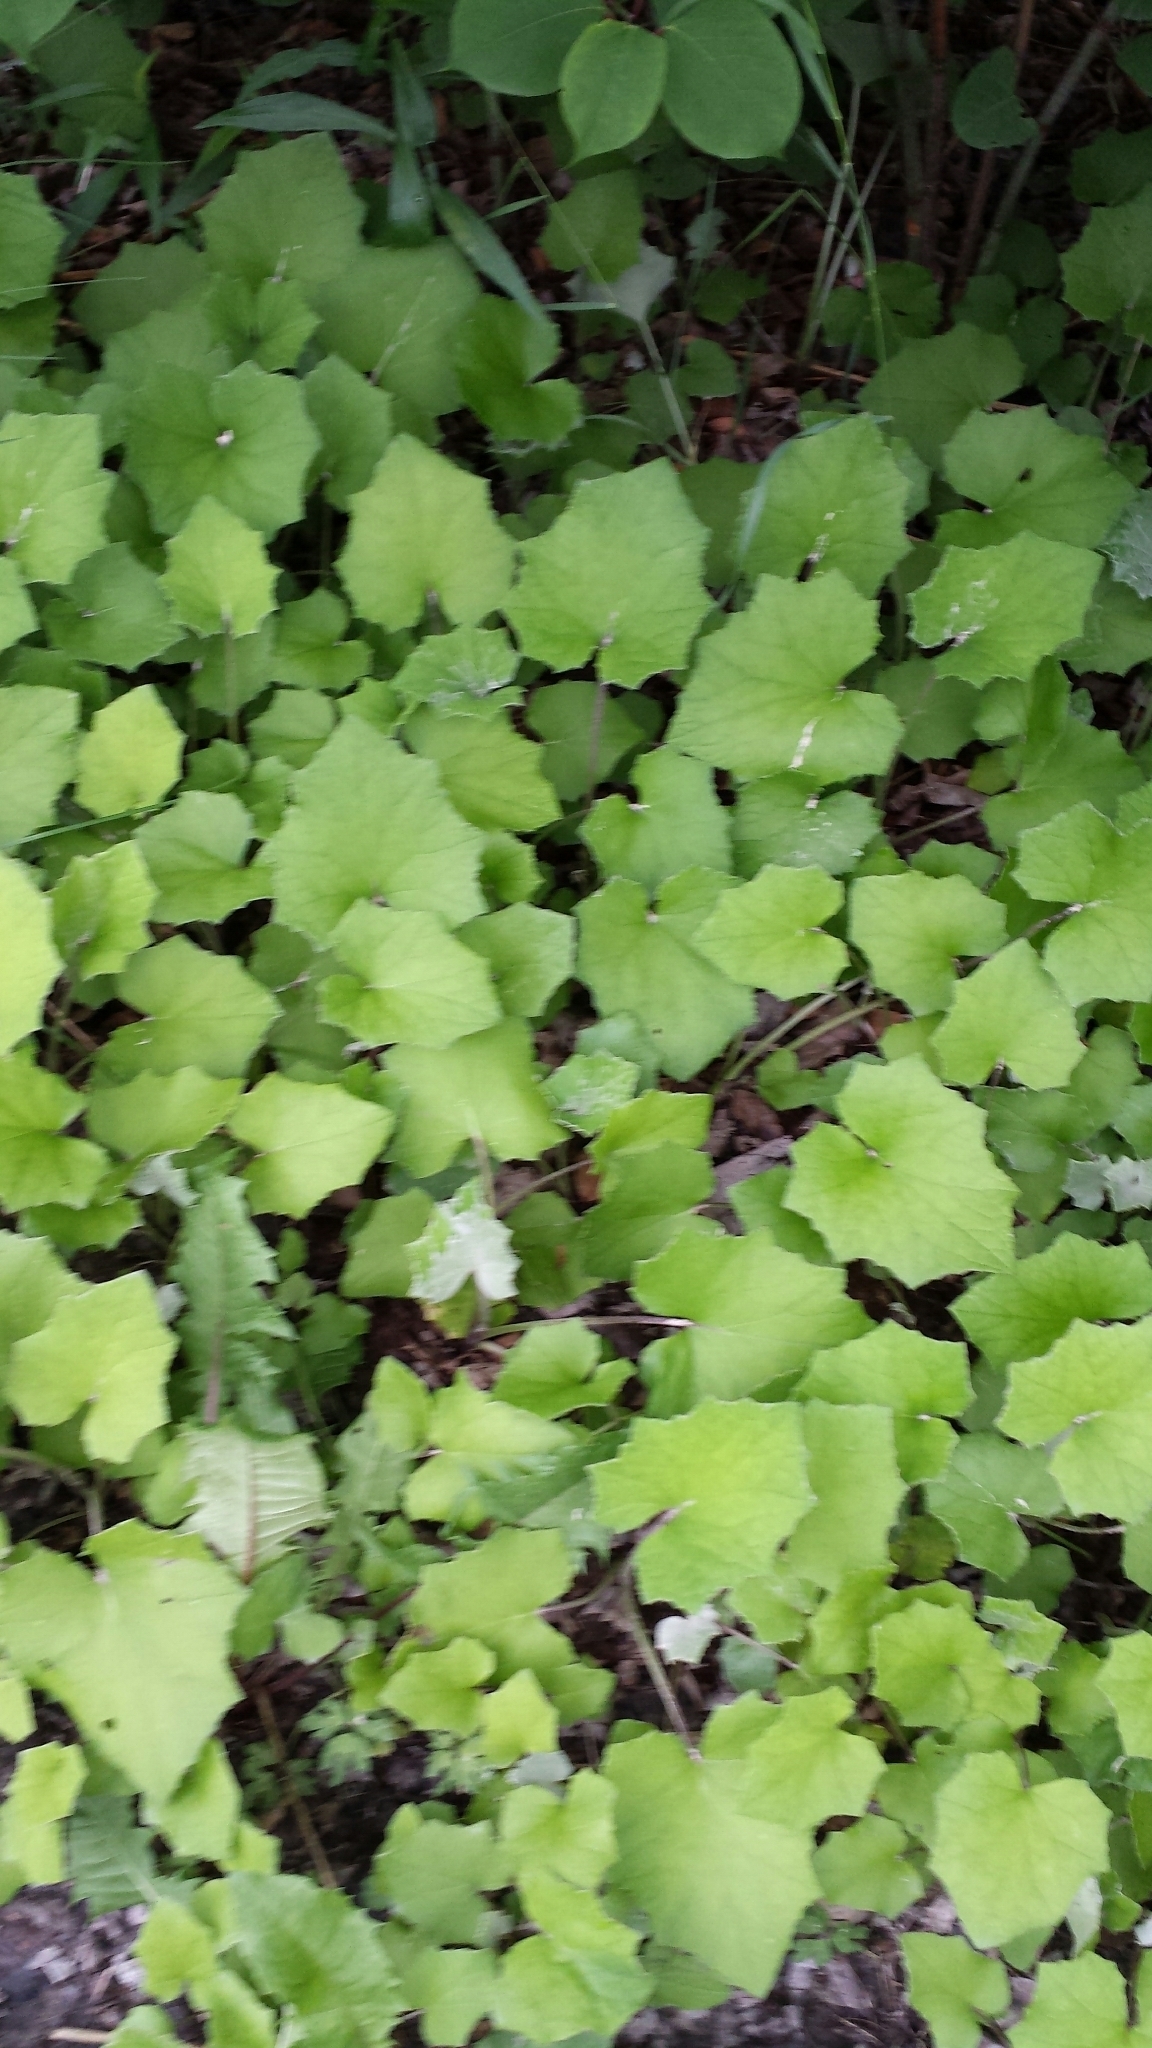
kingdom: Plantae
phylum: Tracheophyta
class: Magnoliopsida
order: Asterales
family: Asteraceae
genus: Tussilago
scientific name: Tussilago farfara
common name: Coltsfoot
